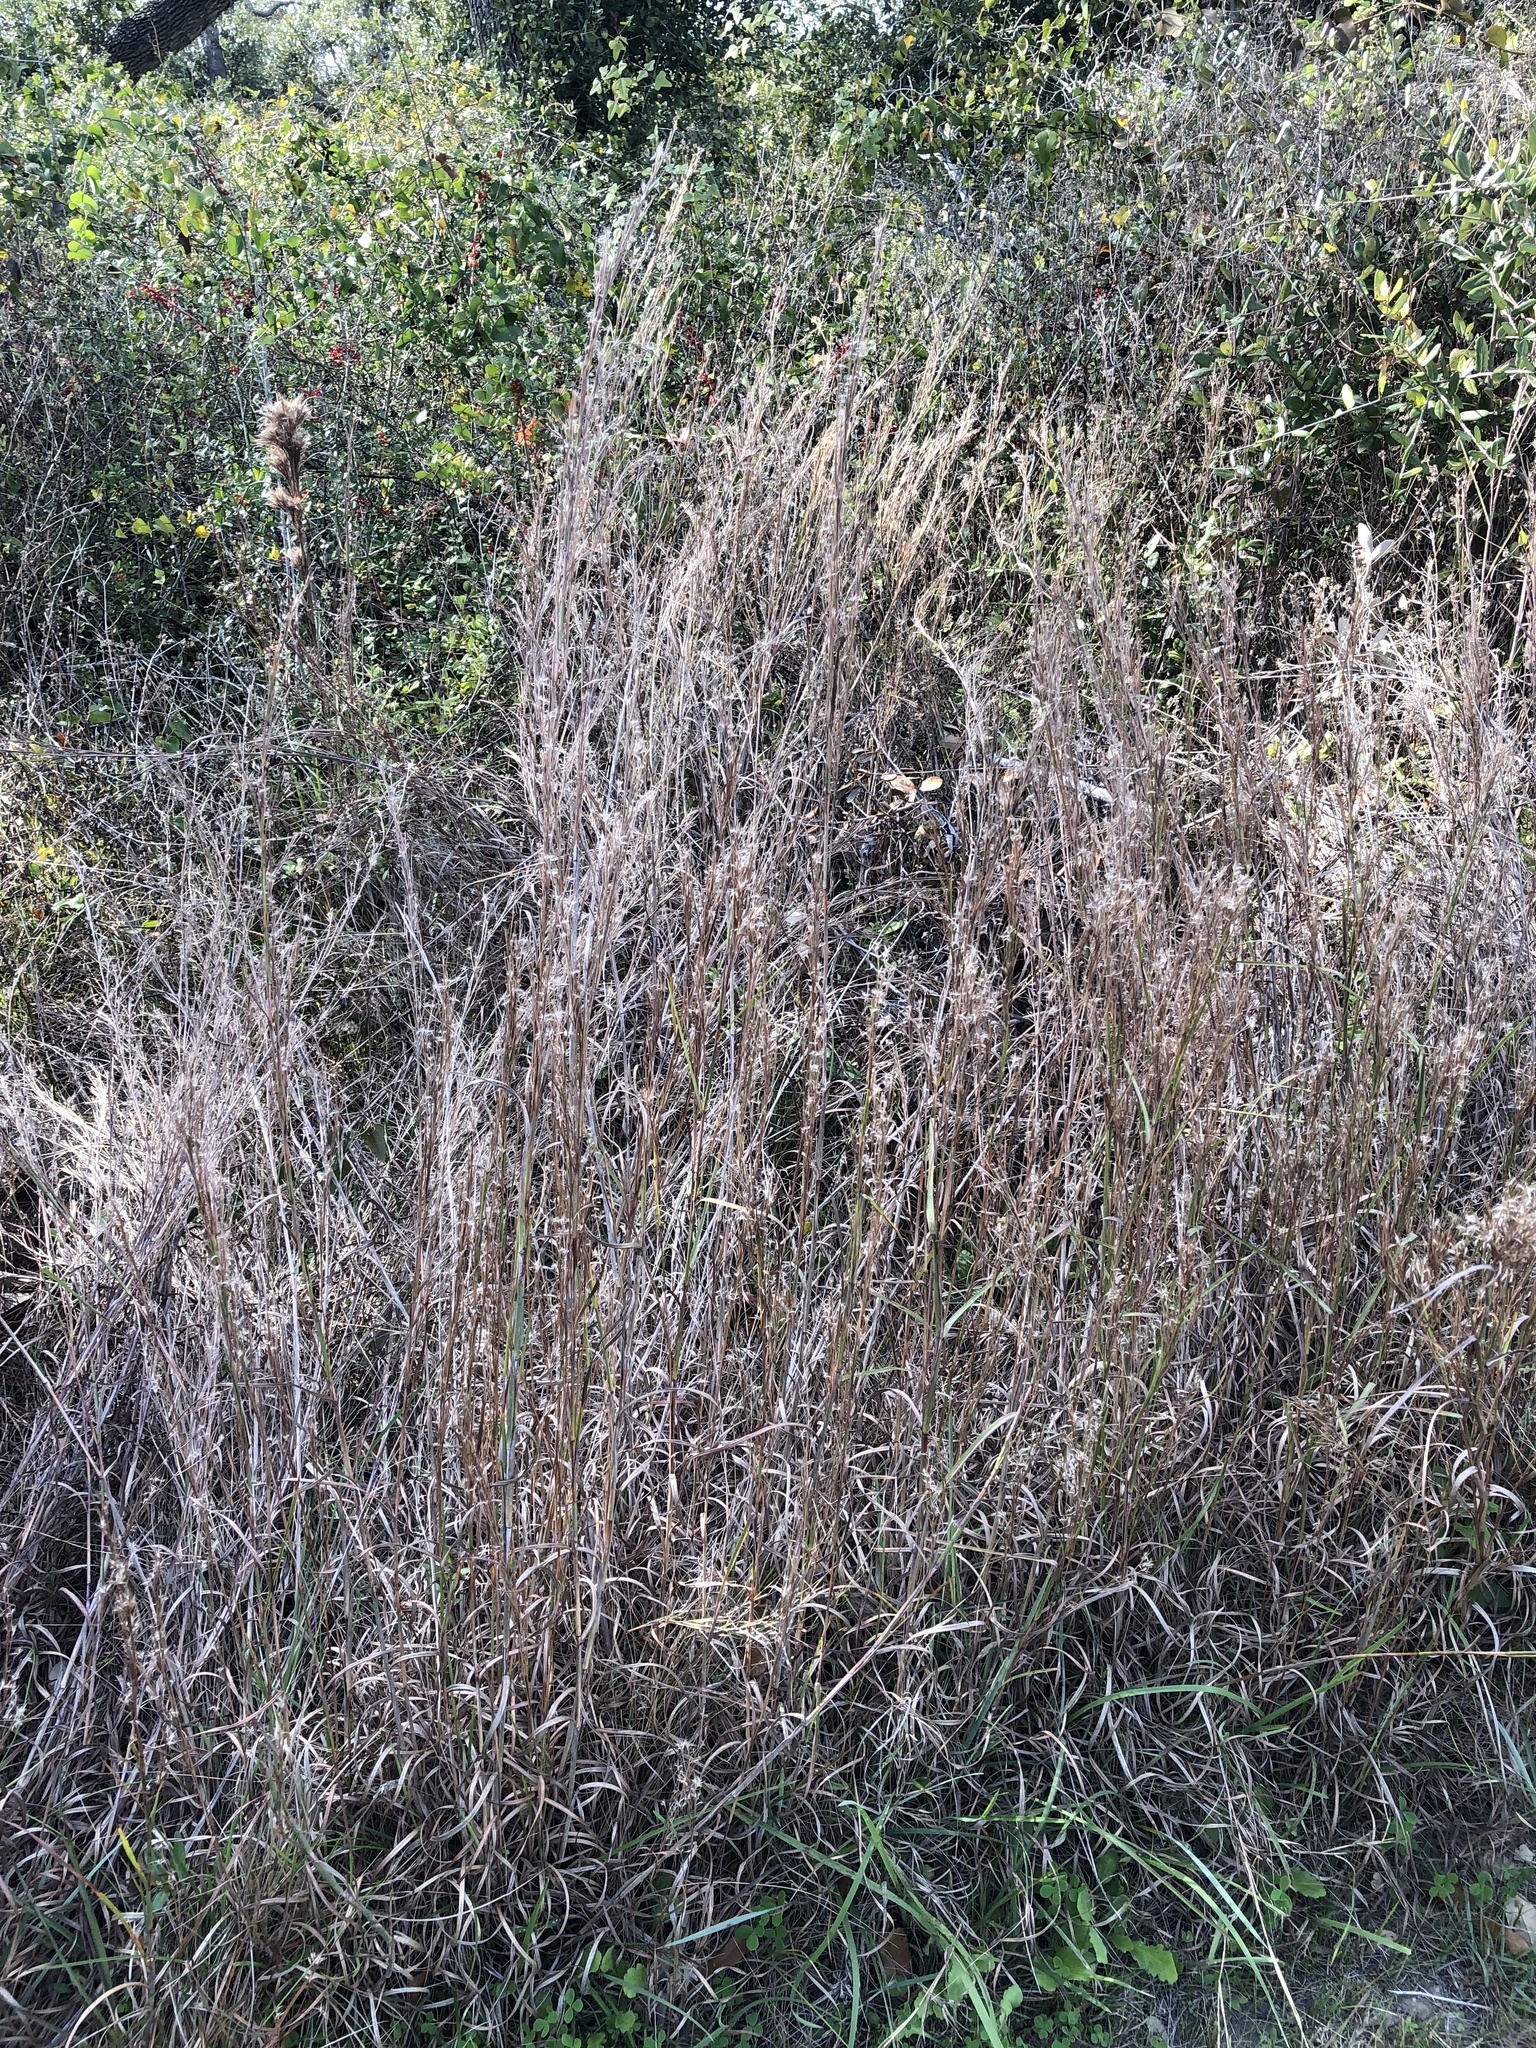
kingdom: Plantae
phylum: Tracheophyta
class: Liliopsida
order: Poales
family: Poaceae
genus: Schizachyrium
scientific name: Schizachyrium scoparium
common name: Little bluestem
